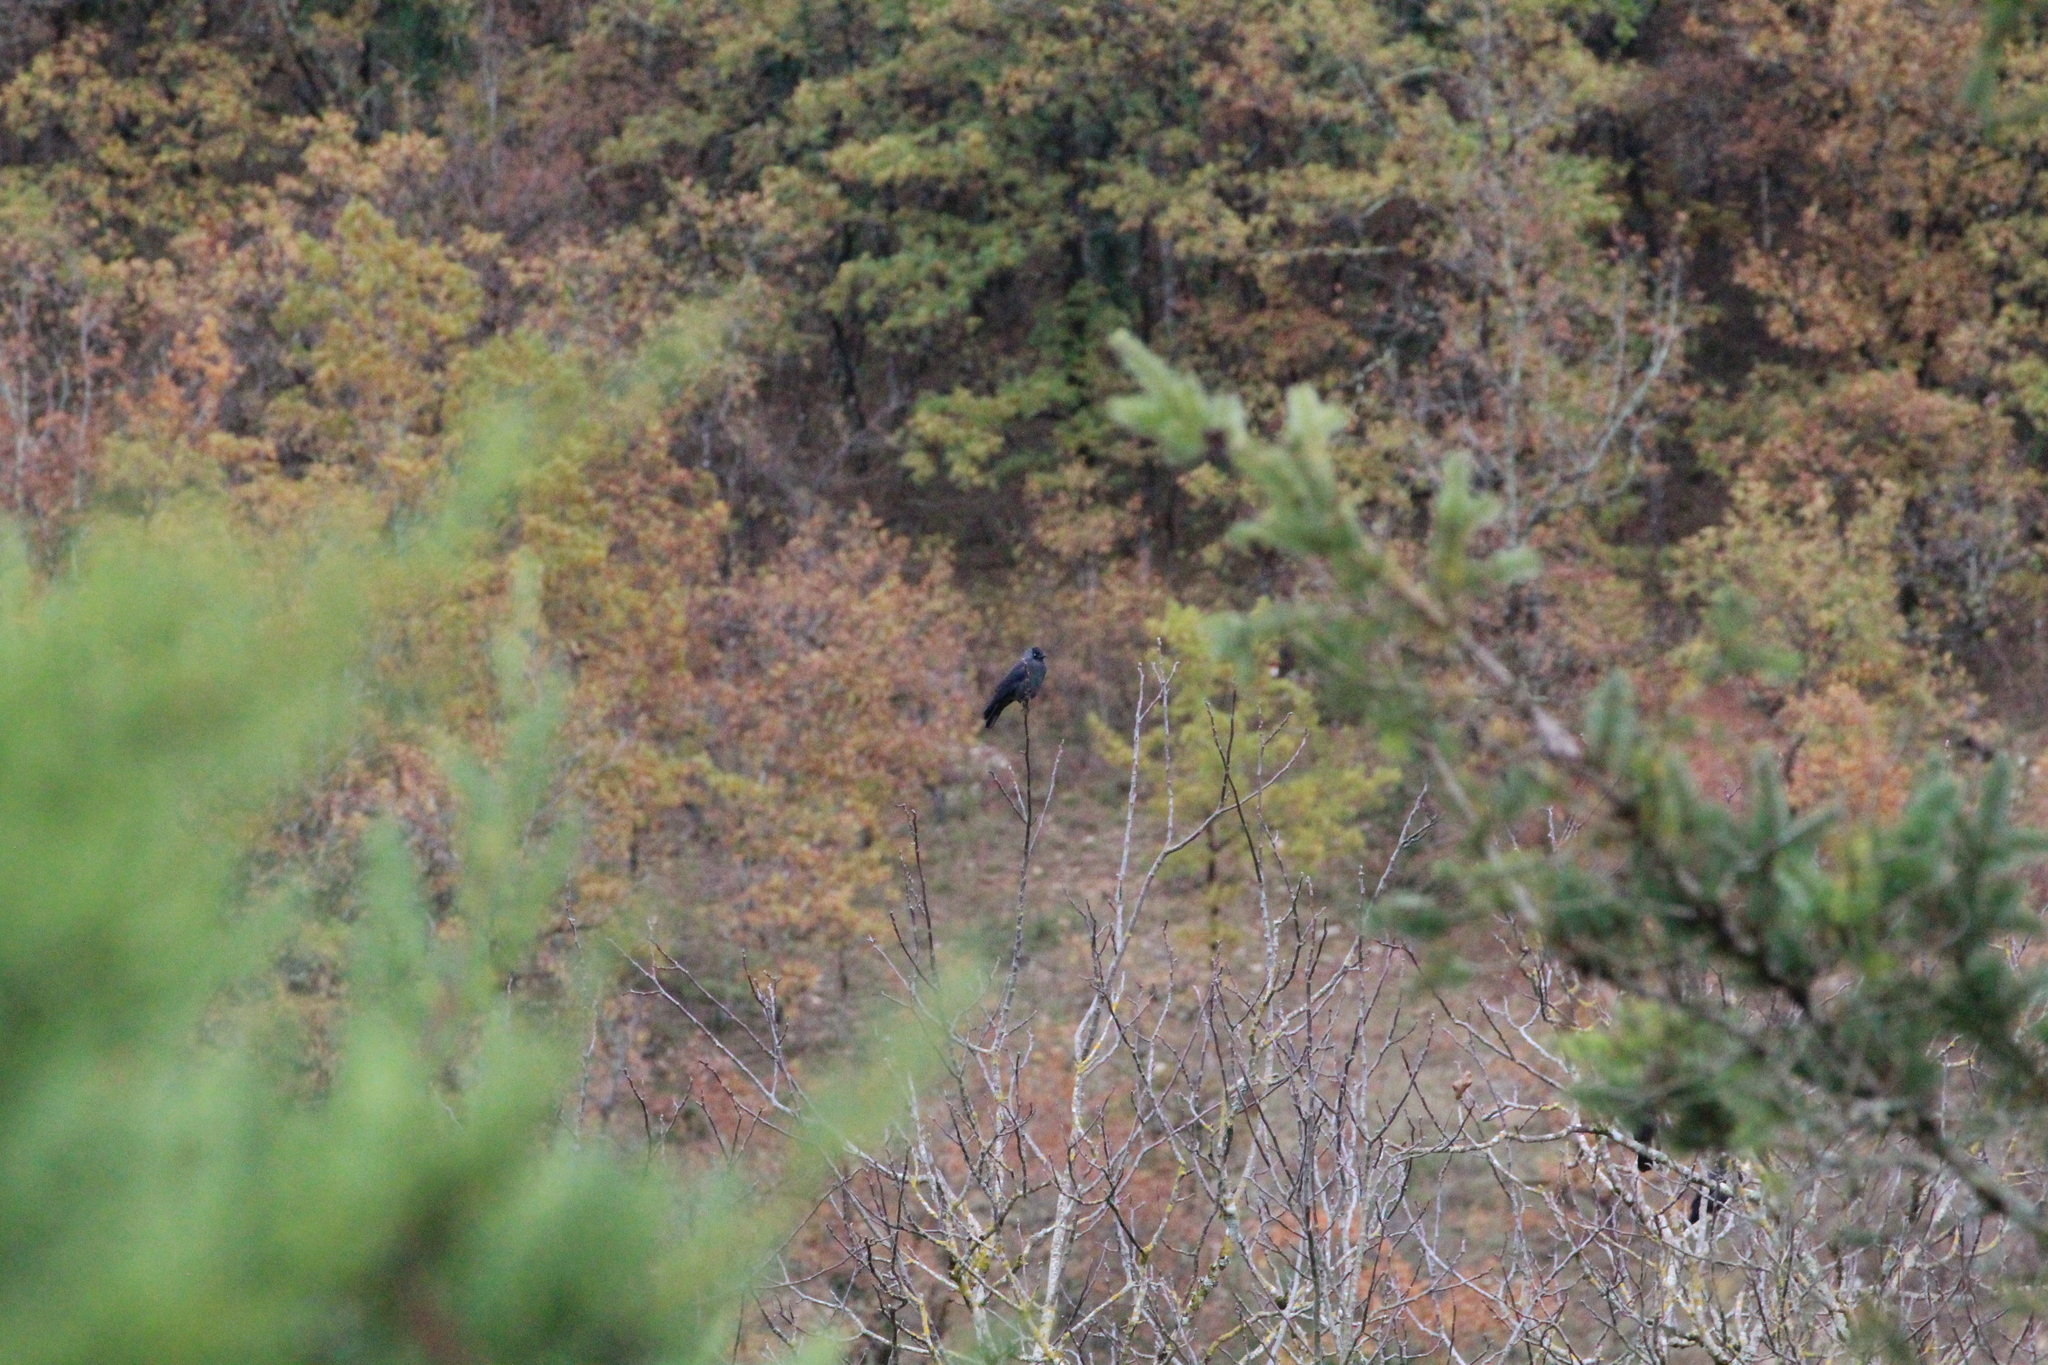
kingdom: Animalia
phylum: Chordata
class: Aves
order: Passeriformes
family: Corvidae
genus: Coloeus
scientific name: Coloeus monedula
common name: Western jackdaw
